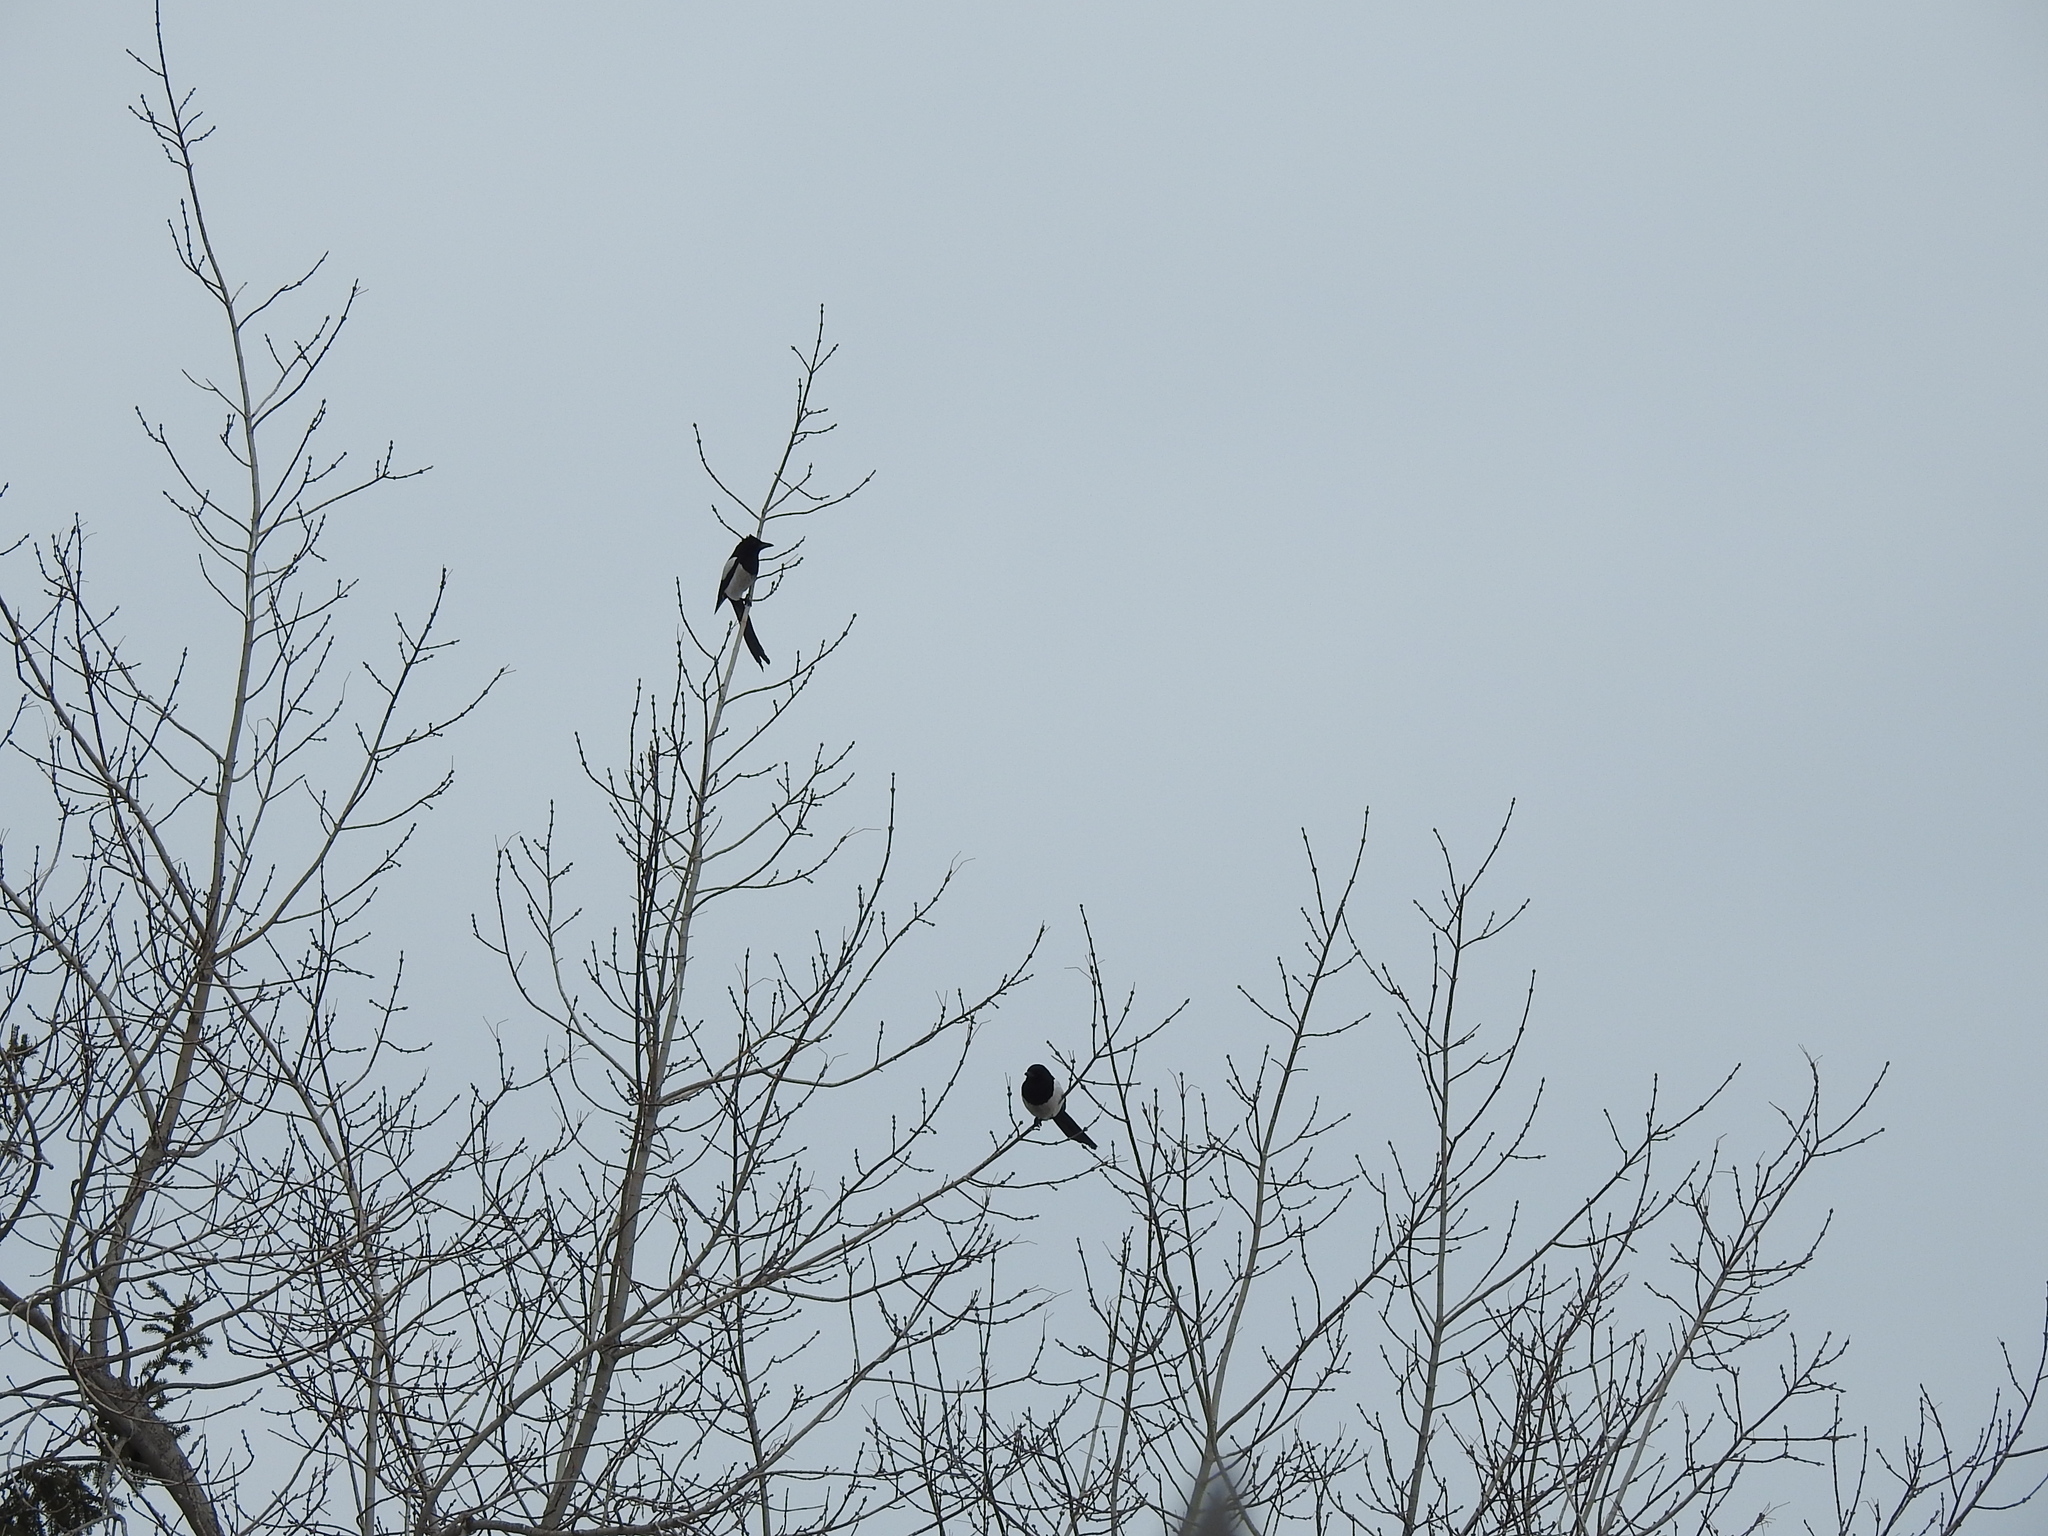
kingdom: Animalia
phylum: Chordata
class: Aves
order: Passeriformes
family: Corvidae
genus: Pica
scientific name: Pica pica
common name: Eurasian magpie
